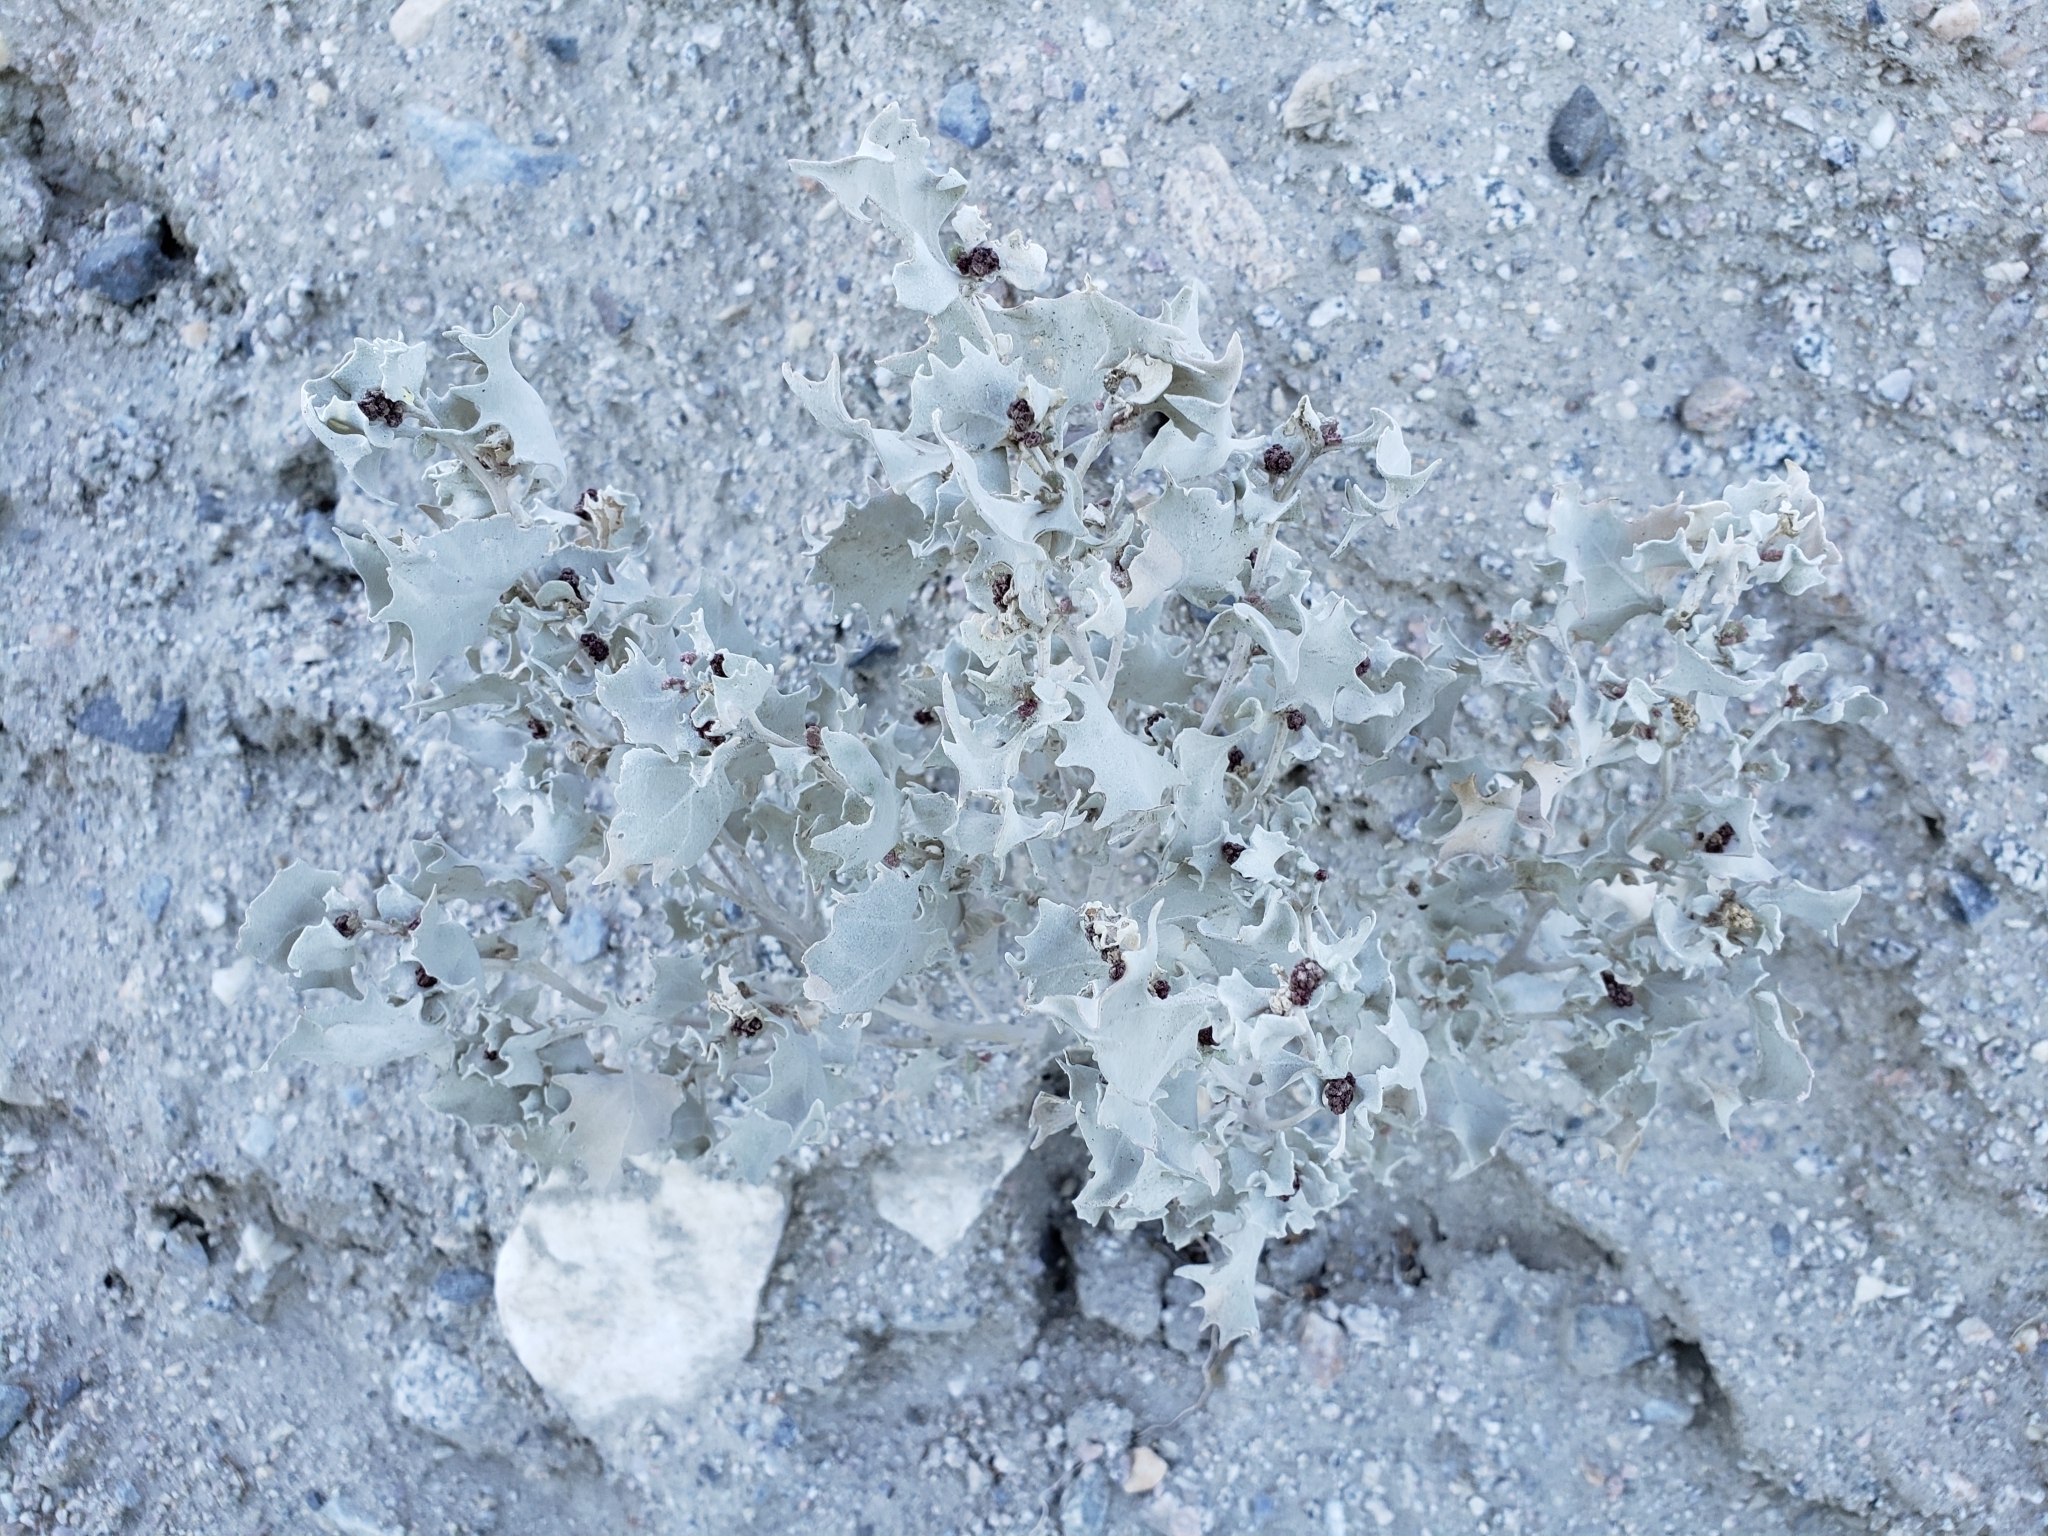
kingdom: Plantae
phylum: Tracheophyta
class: Magnoliopsida
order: Caryophyllales
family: Amaranthaceae
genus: Atriplex
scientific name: Atriplex hymenelytra
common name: Desert-holly
